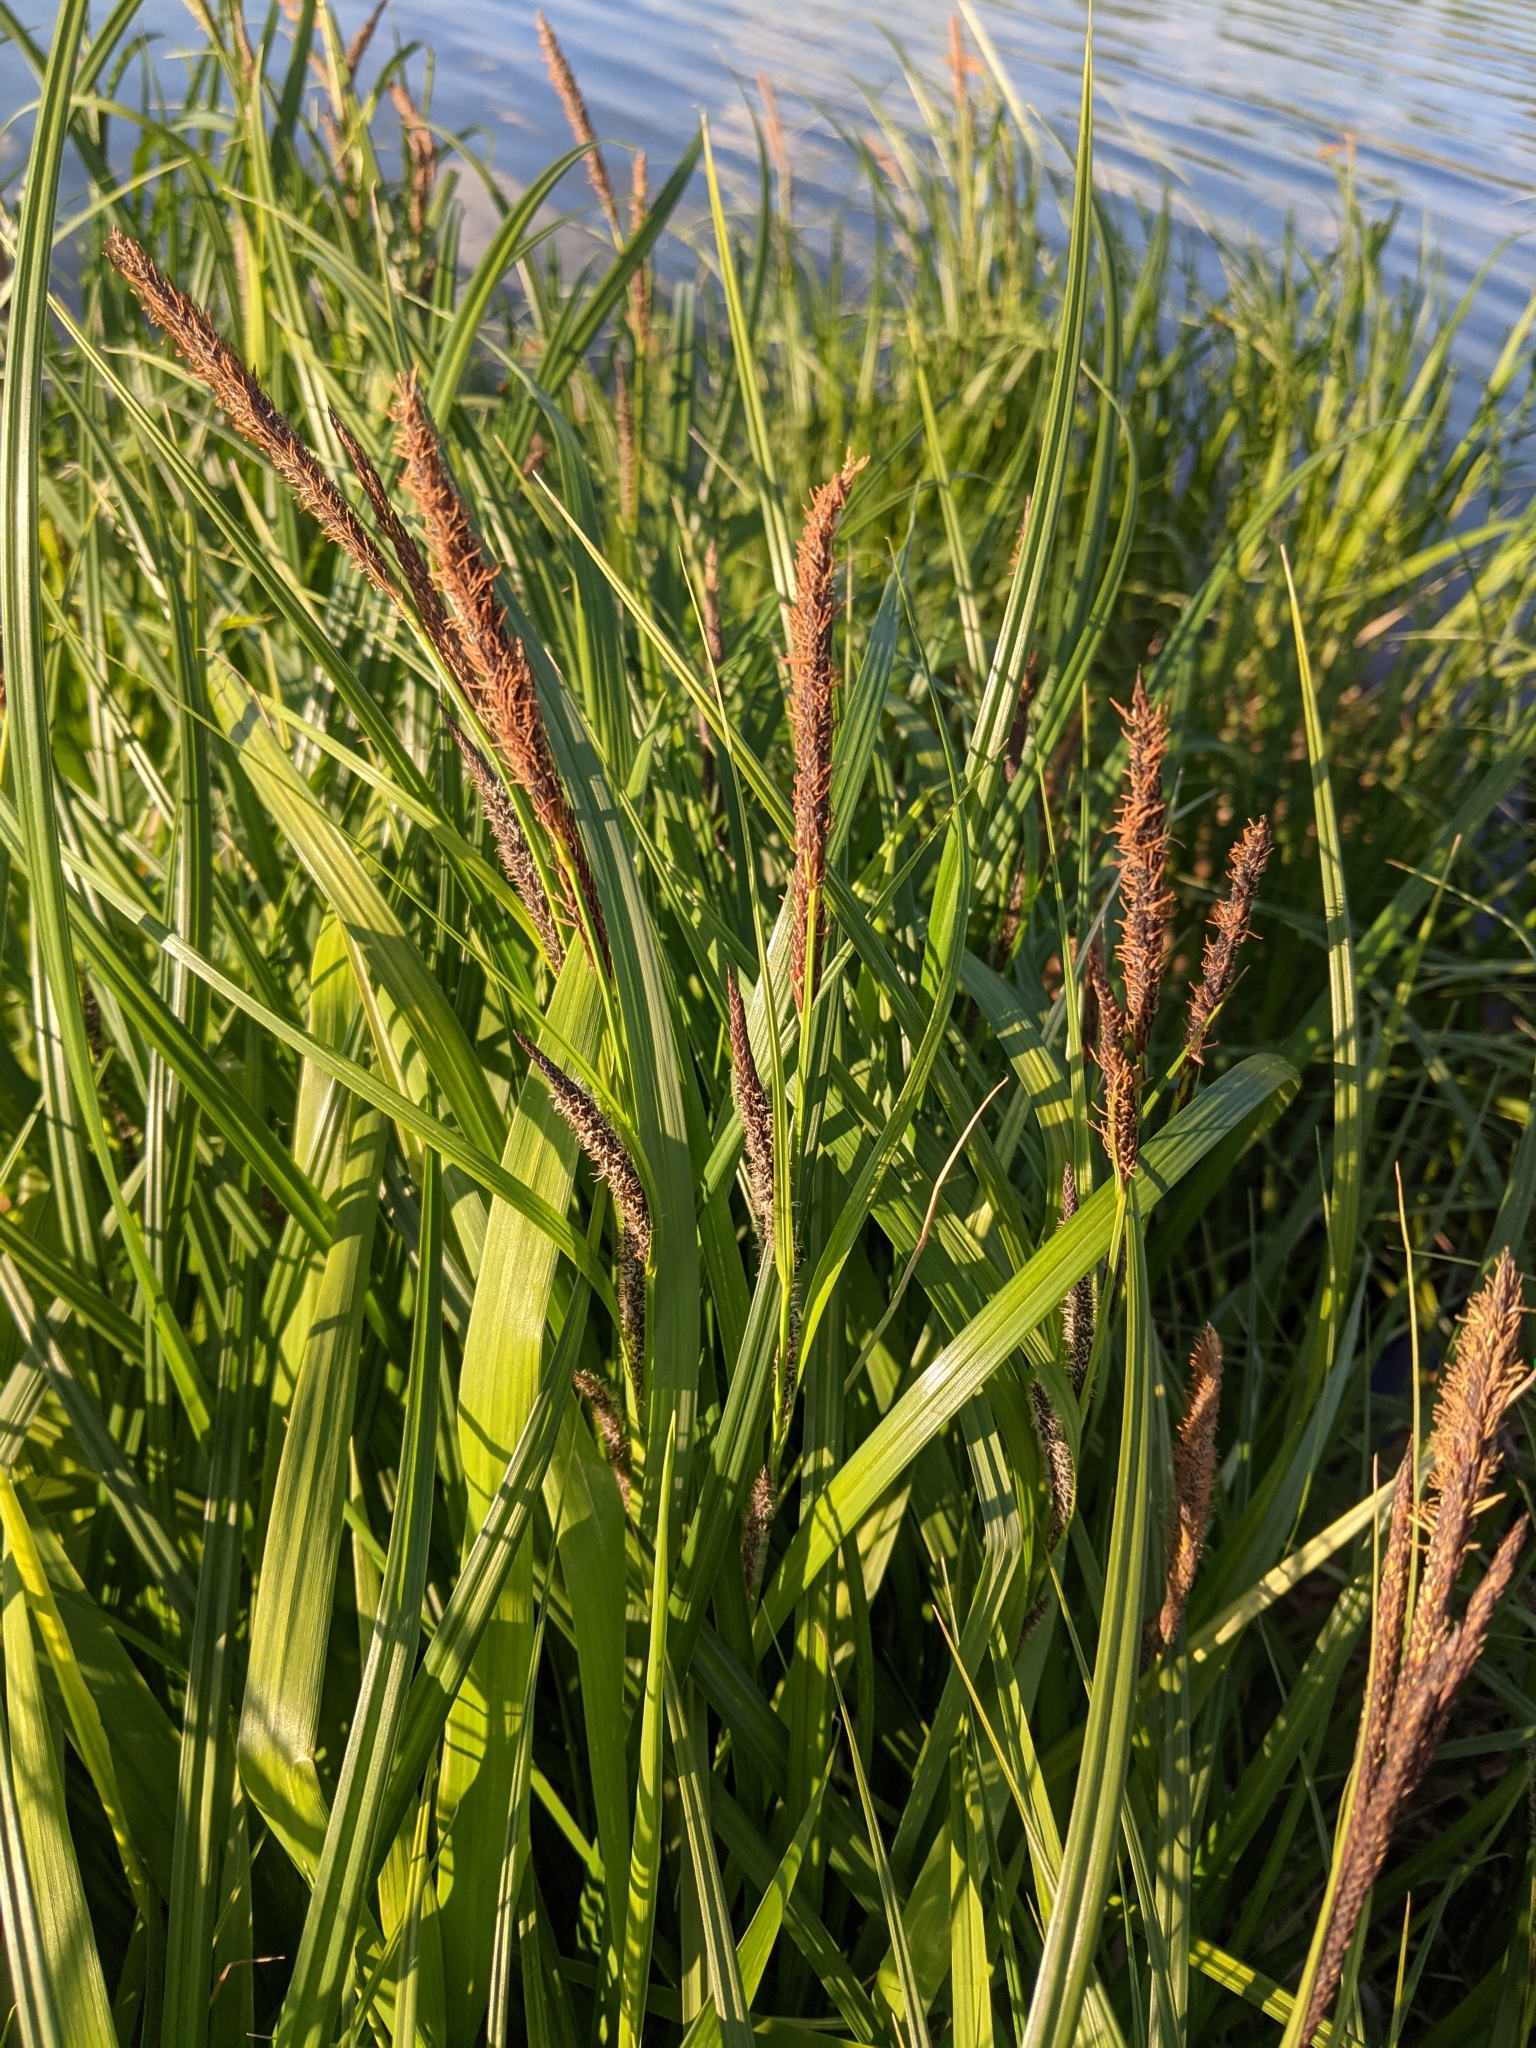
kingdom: Plantae
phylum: Tracheophyta
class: Liliopsida
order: Poales
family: Cyperaceae
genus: Carex
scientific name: Carex acuta
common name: Slender tufted-sedge
